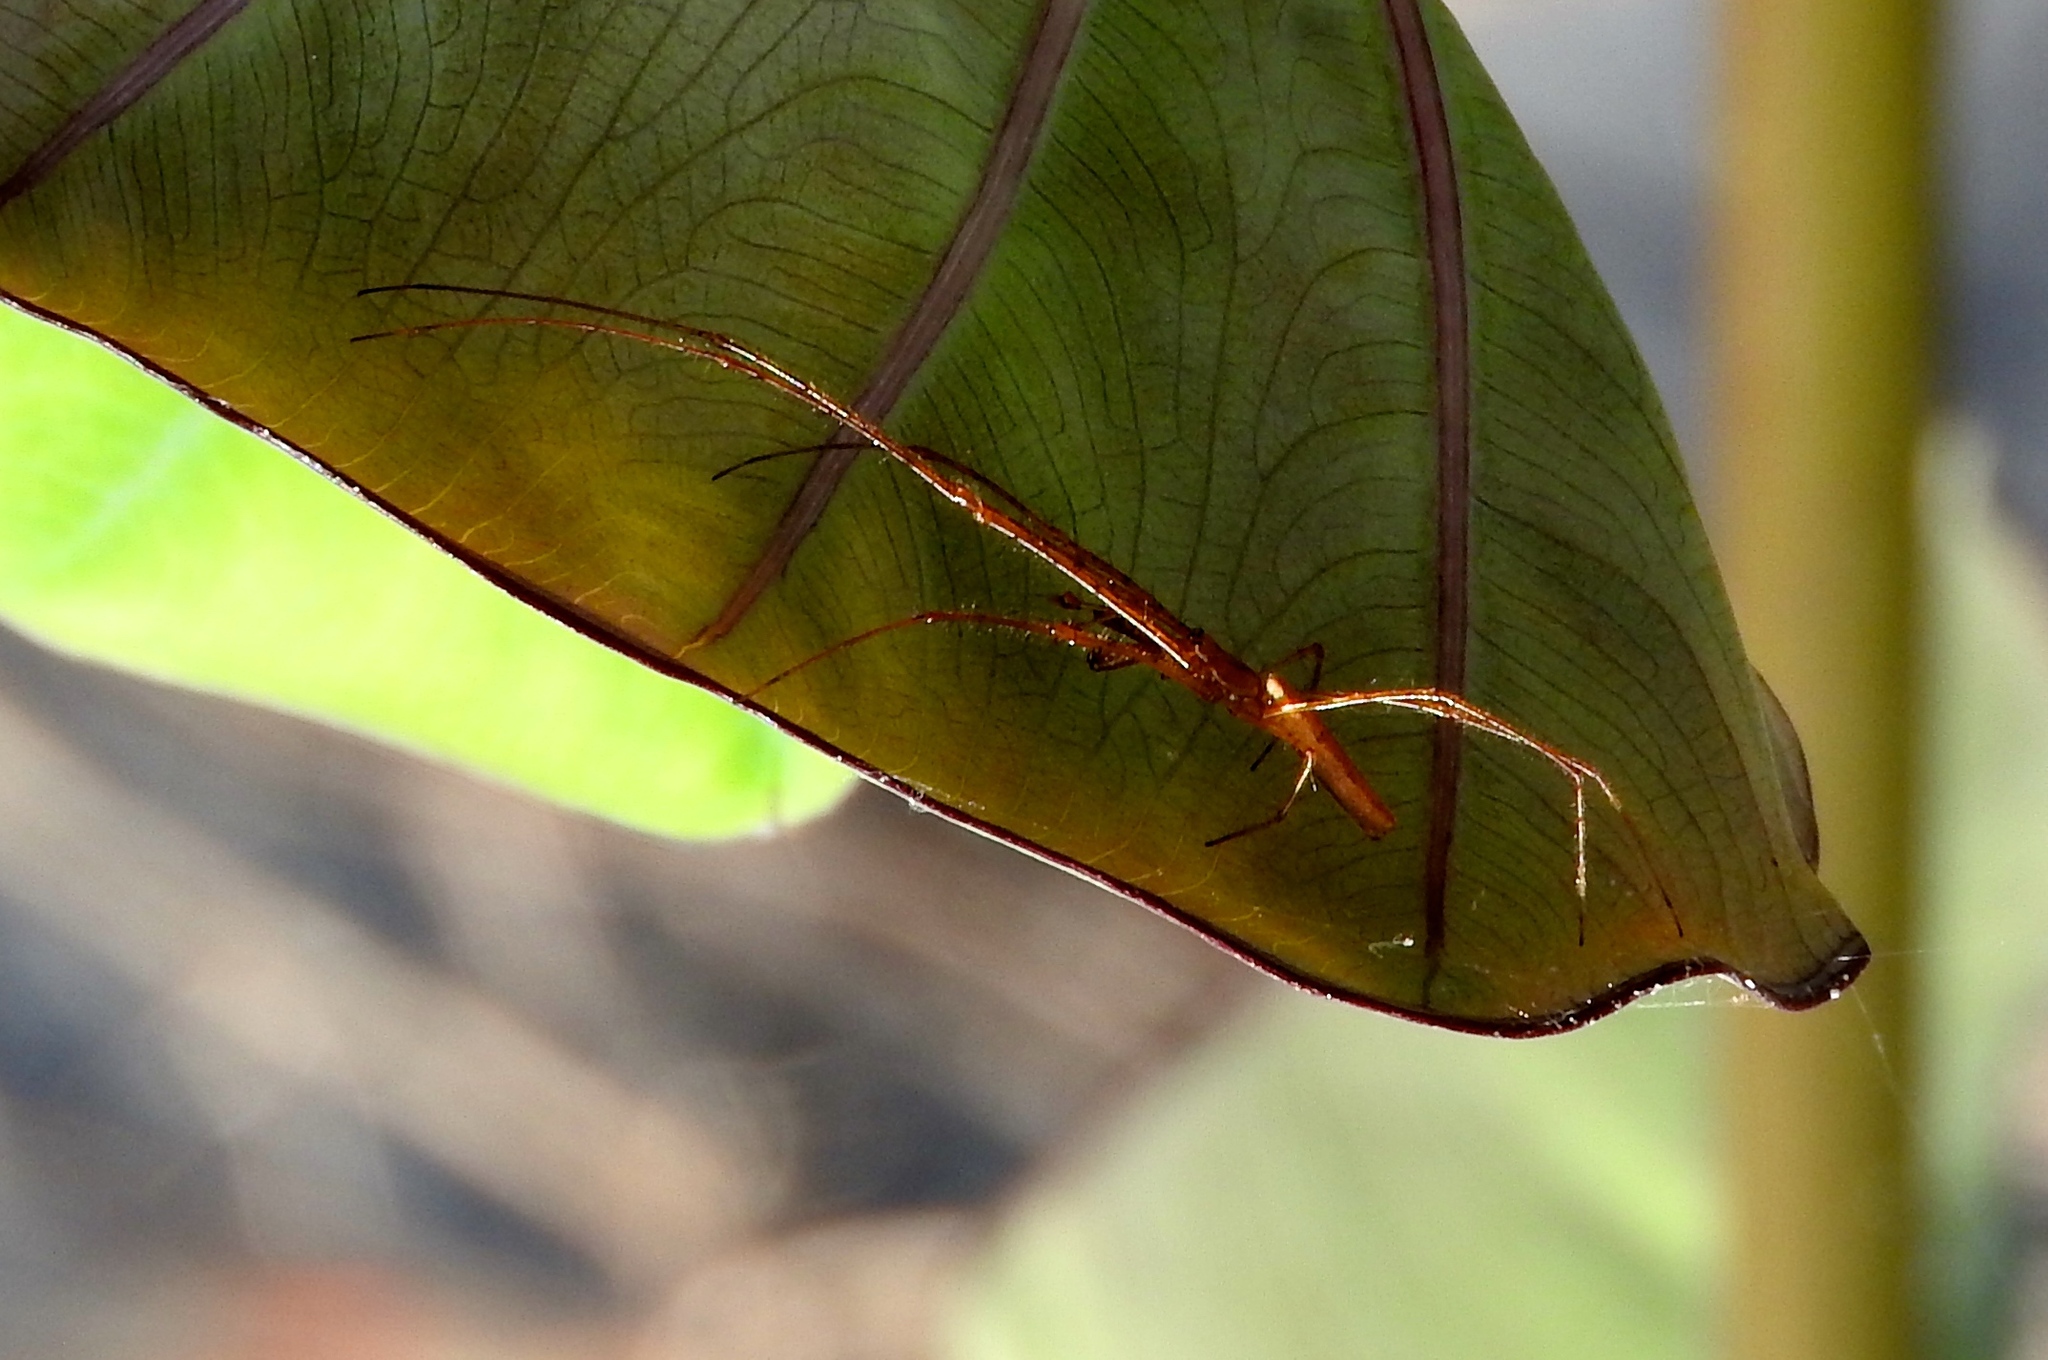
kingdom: Animalia
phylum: Arthropoda
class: Arachnida
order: Araneae
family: Tetragnathidae
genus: Tetragnatha
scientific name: Tetragnatha
